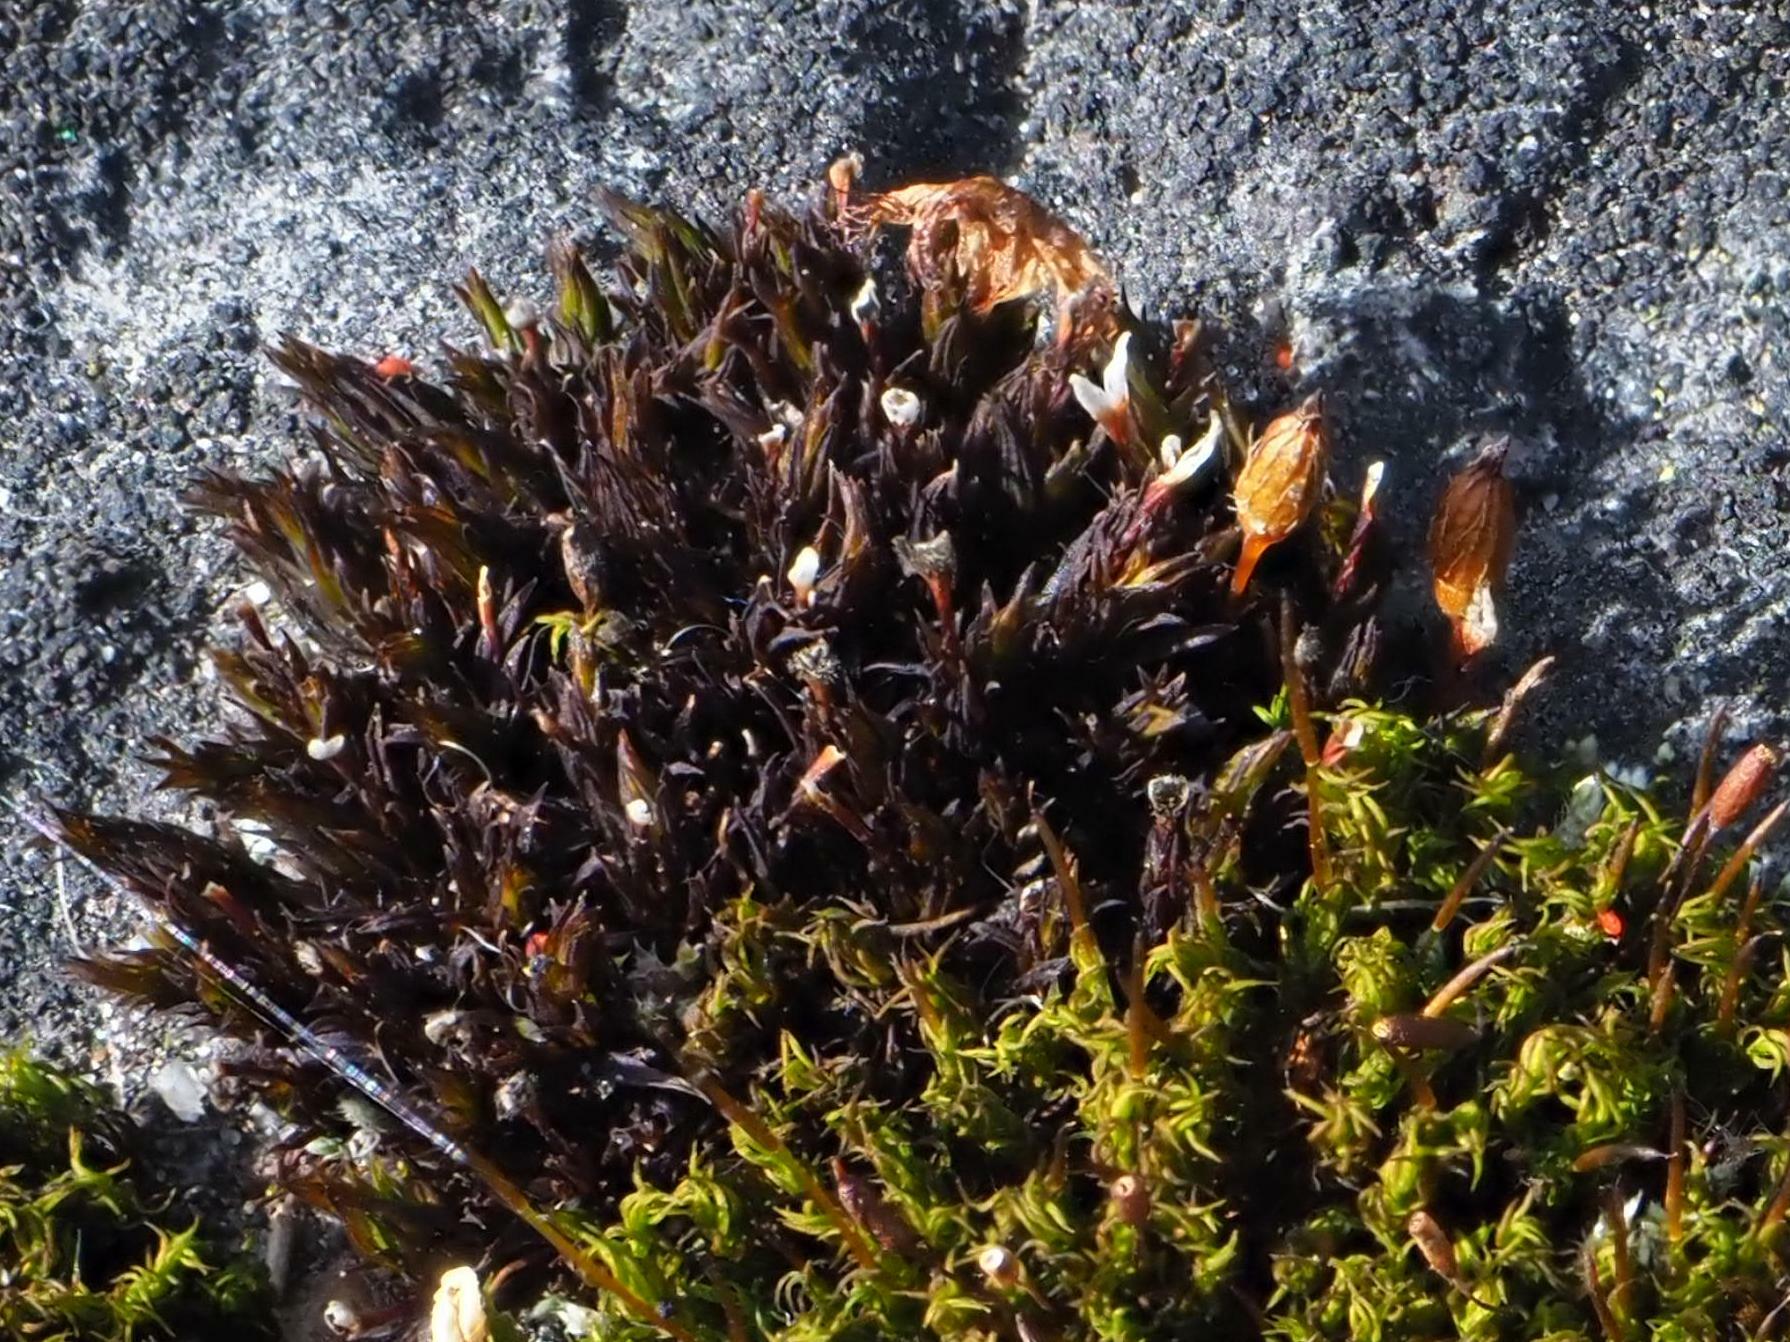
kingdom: Plantae
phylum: Bryophyta
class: Bryopsida
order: Orthotrichales
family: Orthotrichaceae
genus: Orthotrichum
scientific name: Orthotrichum anomalum
